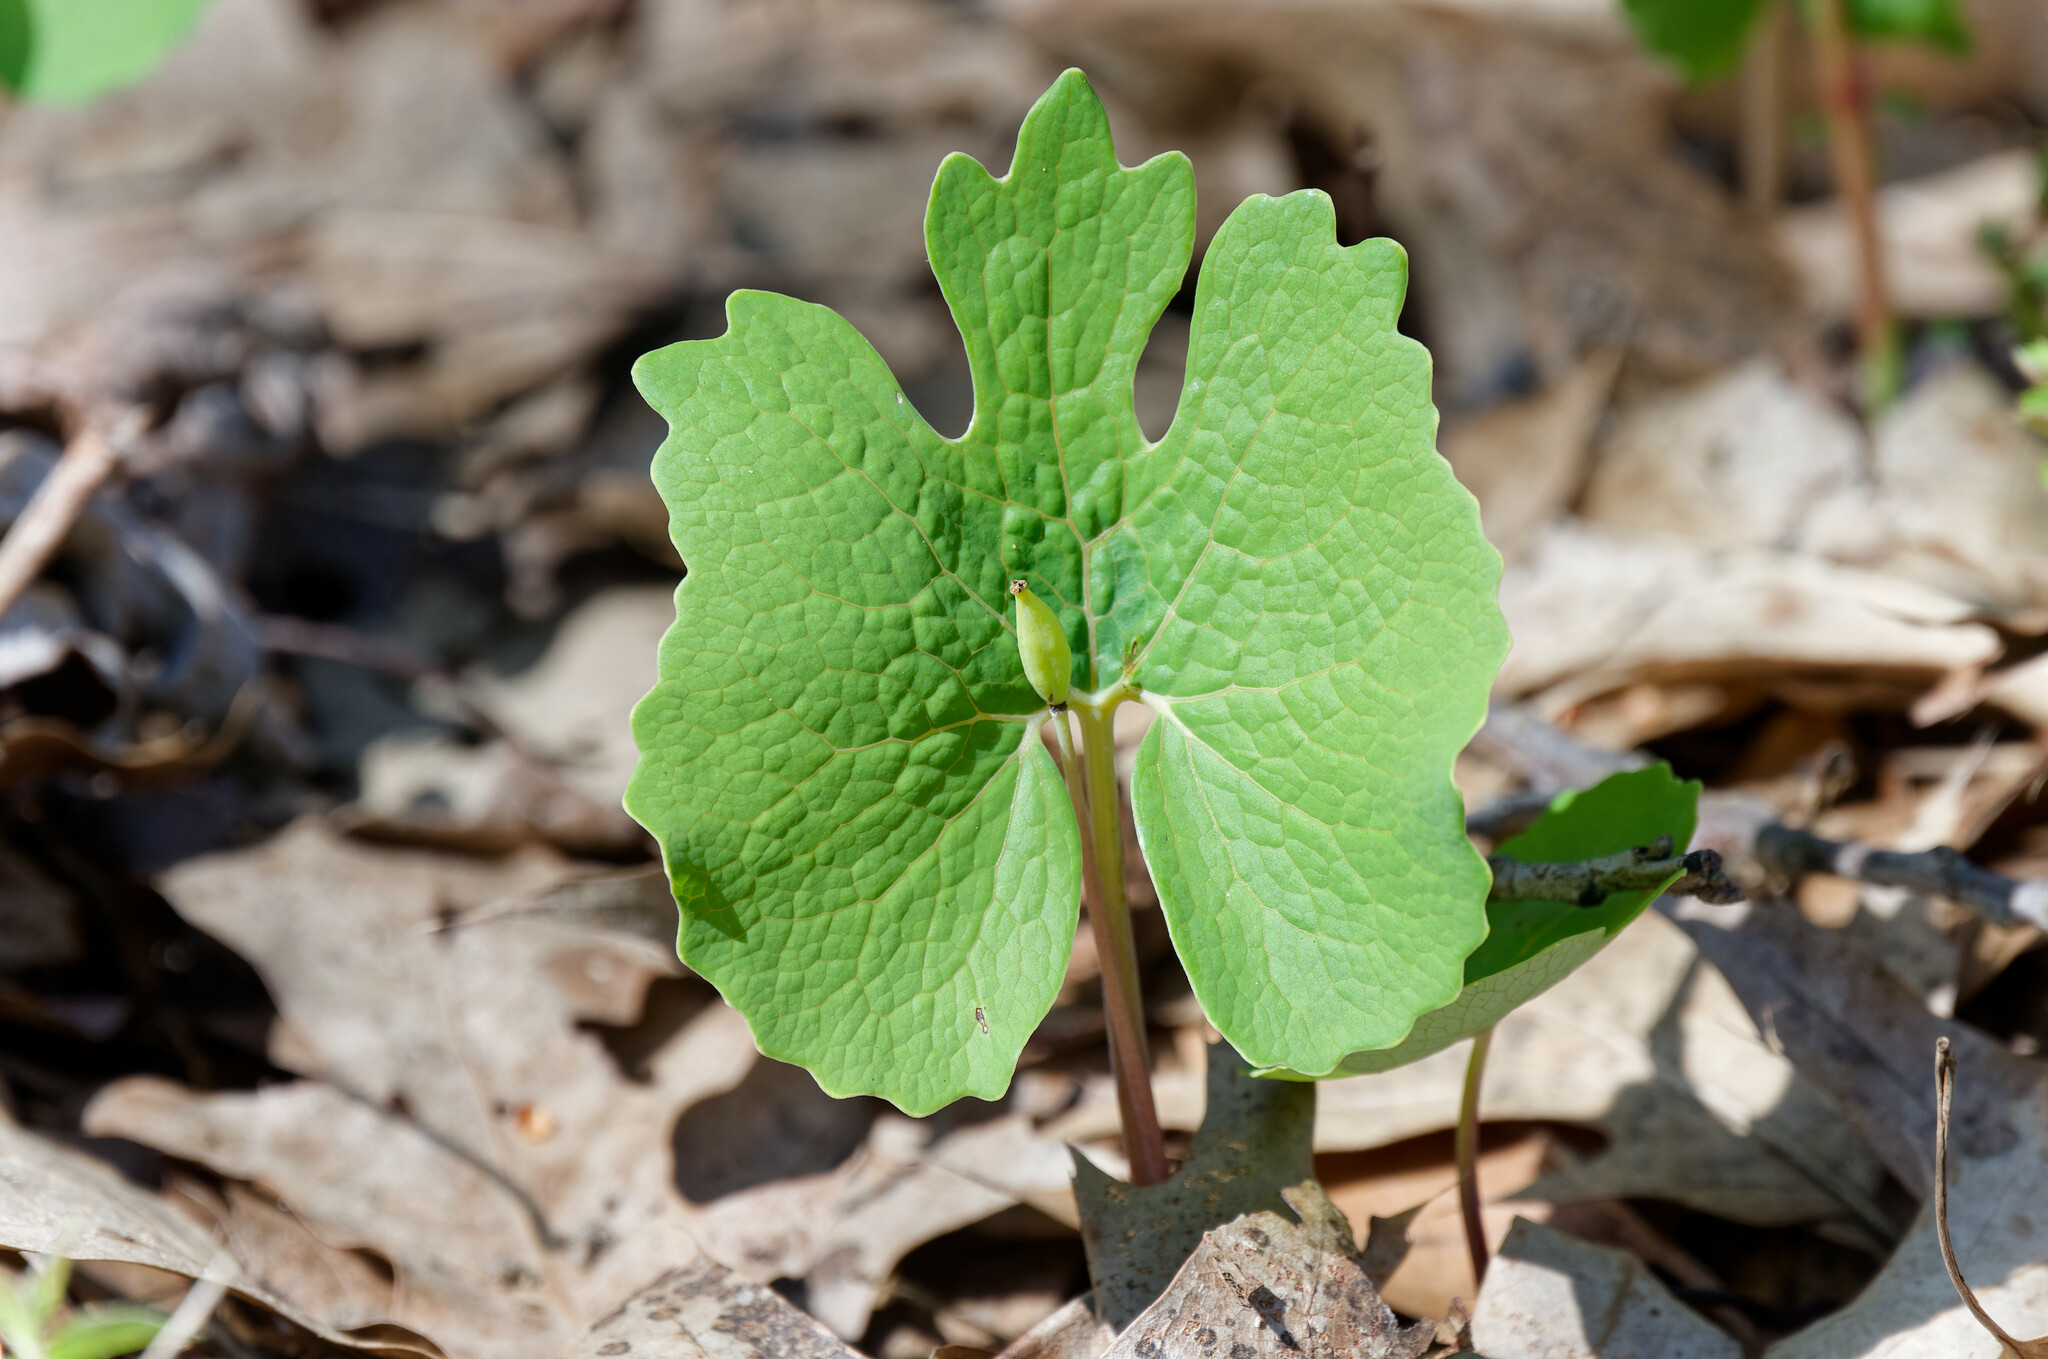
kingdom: Plantae
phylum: Tracheophyta
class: Magnoliopsida
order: Ranunculales
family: Papaveraceae
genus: Sanguinaria
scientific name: Sanguinaria canadensis
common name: Bloodroot
